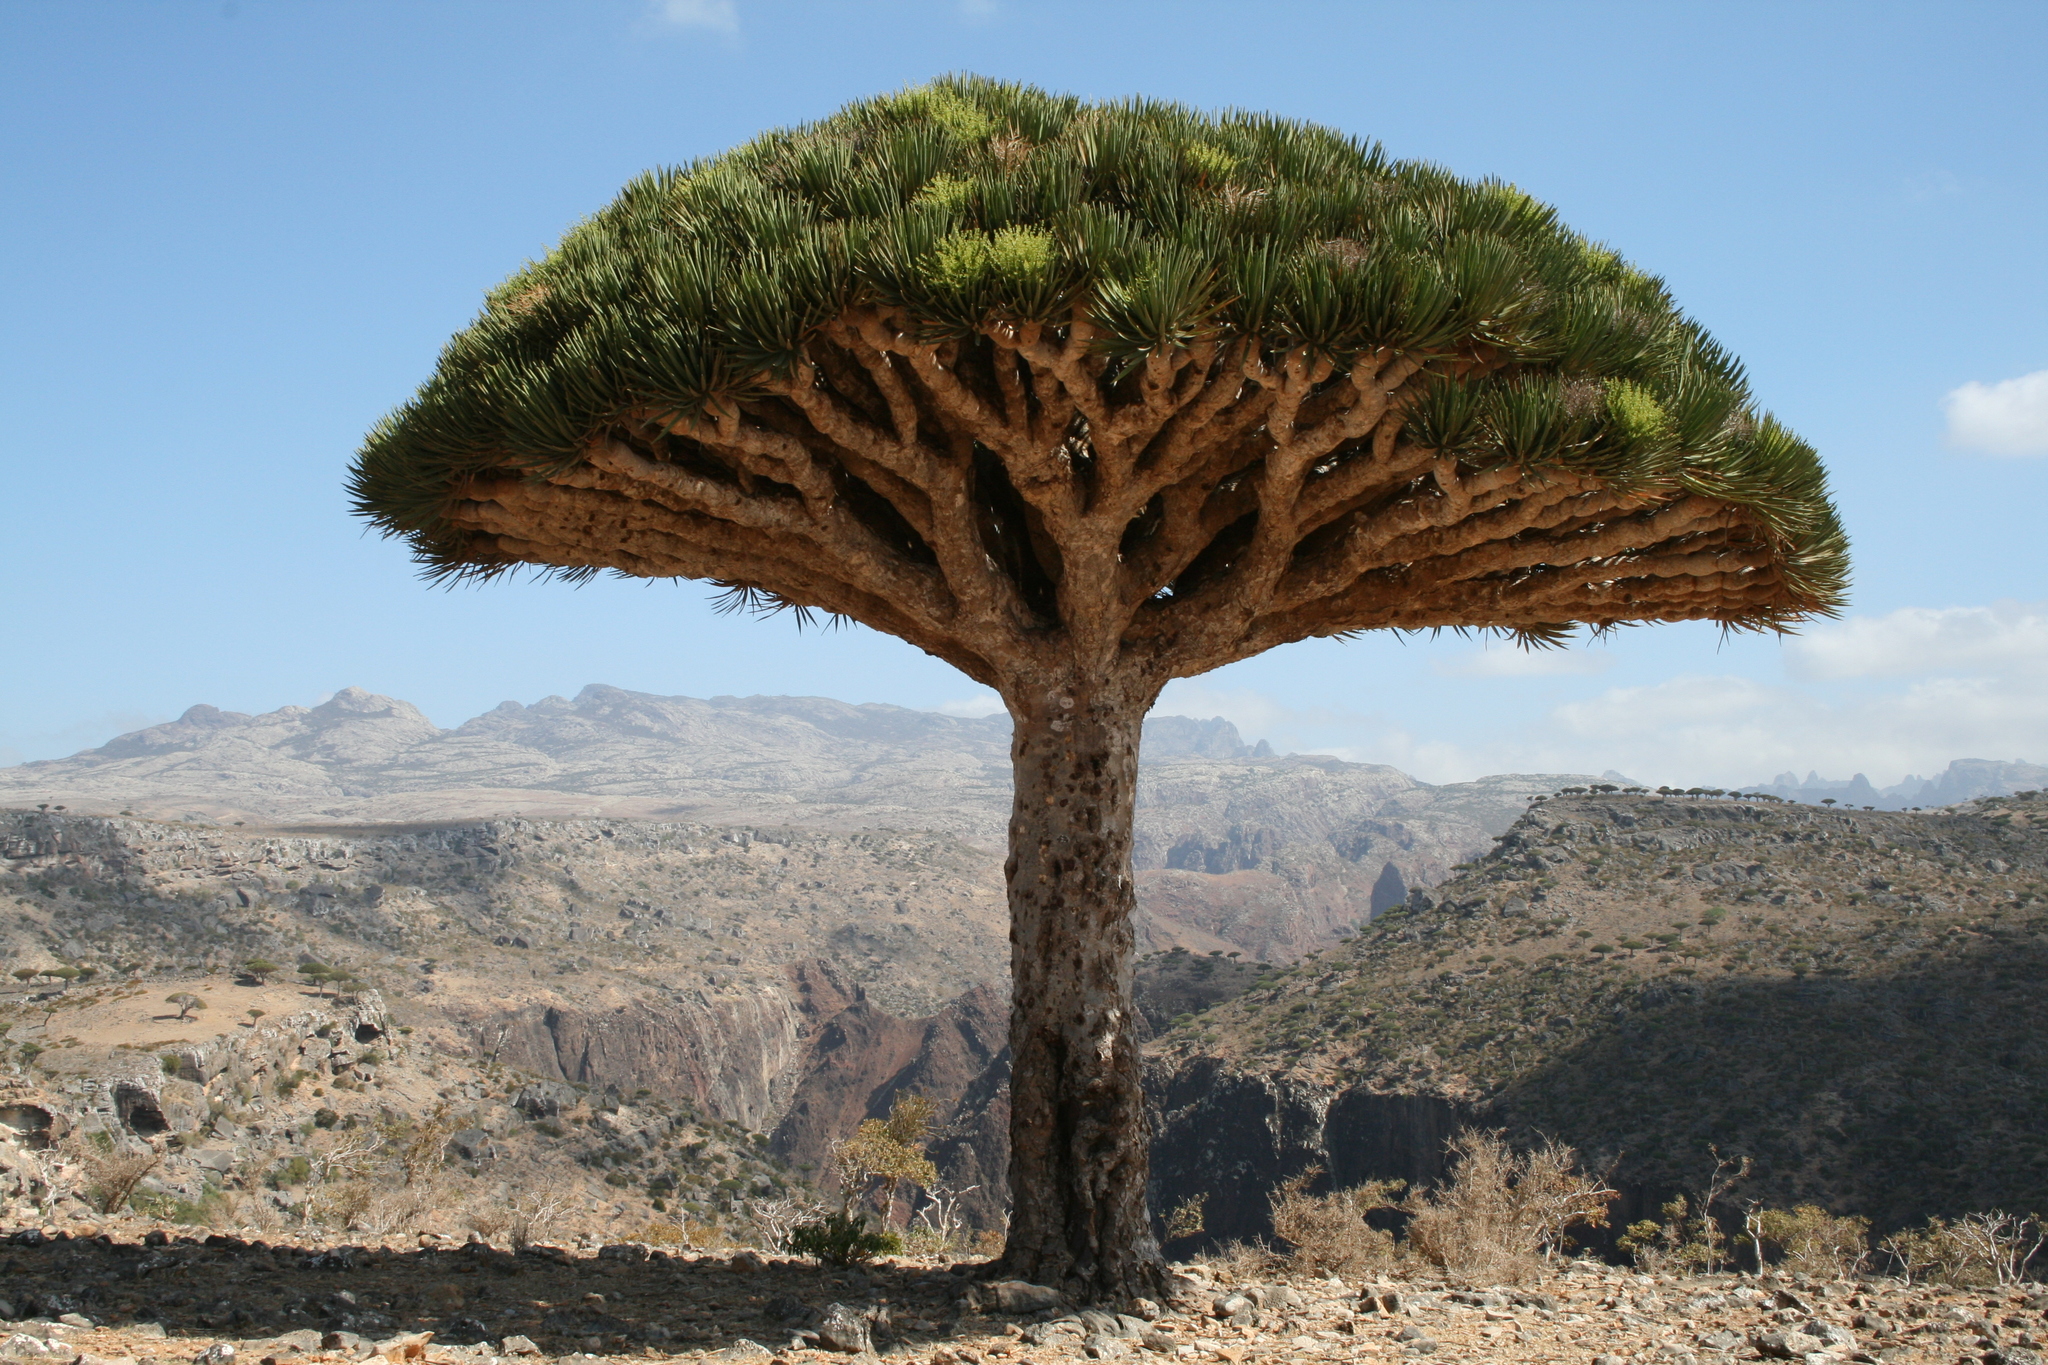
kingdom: Plantae
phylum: Tracheophyta
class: Liliopsida
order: Asparagales
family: Asparagaceae
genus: Dracaena
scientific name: Dracaena cinnabari
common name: Dragon's blood tree
